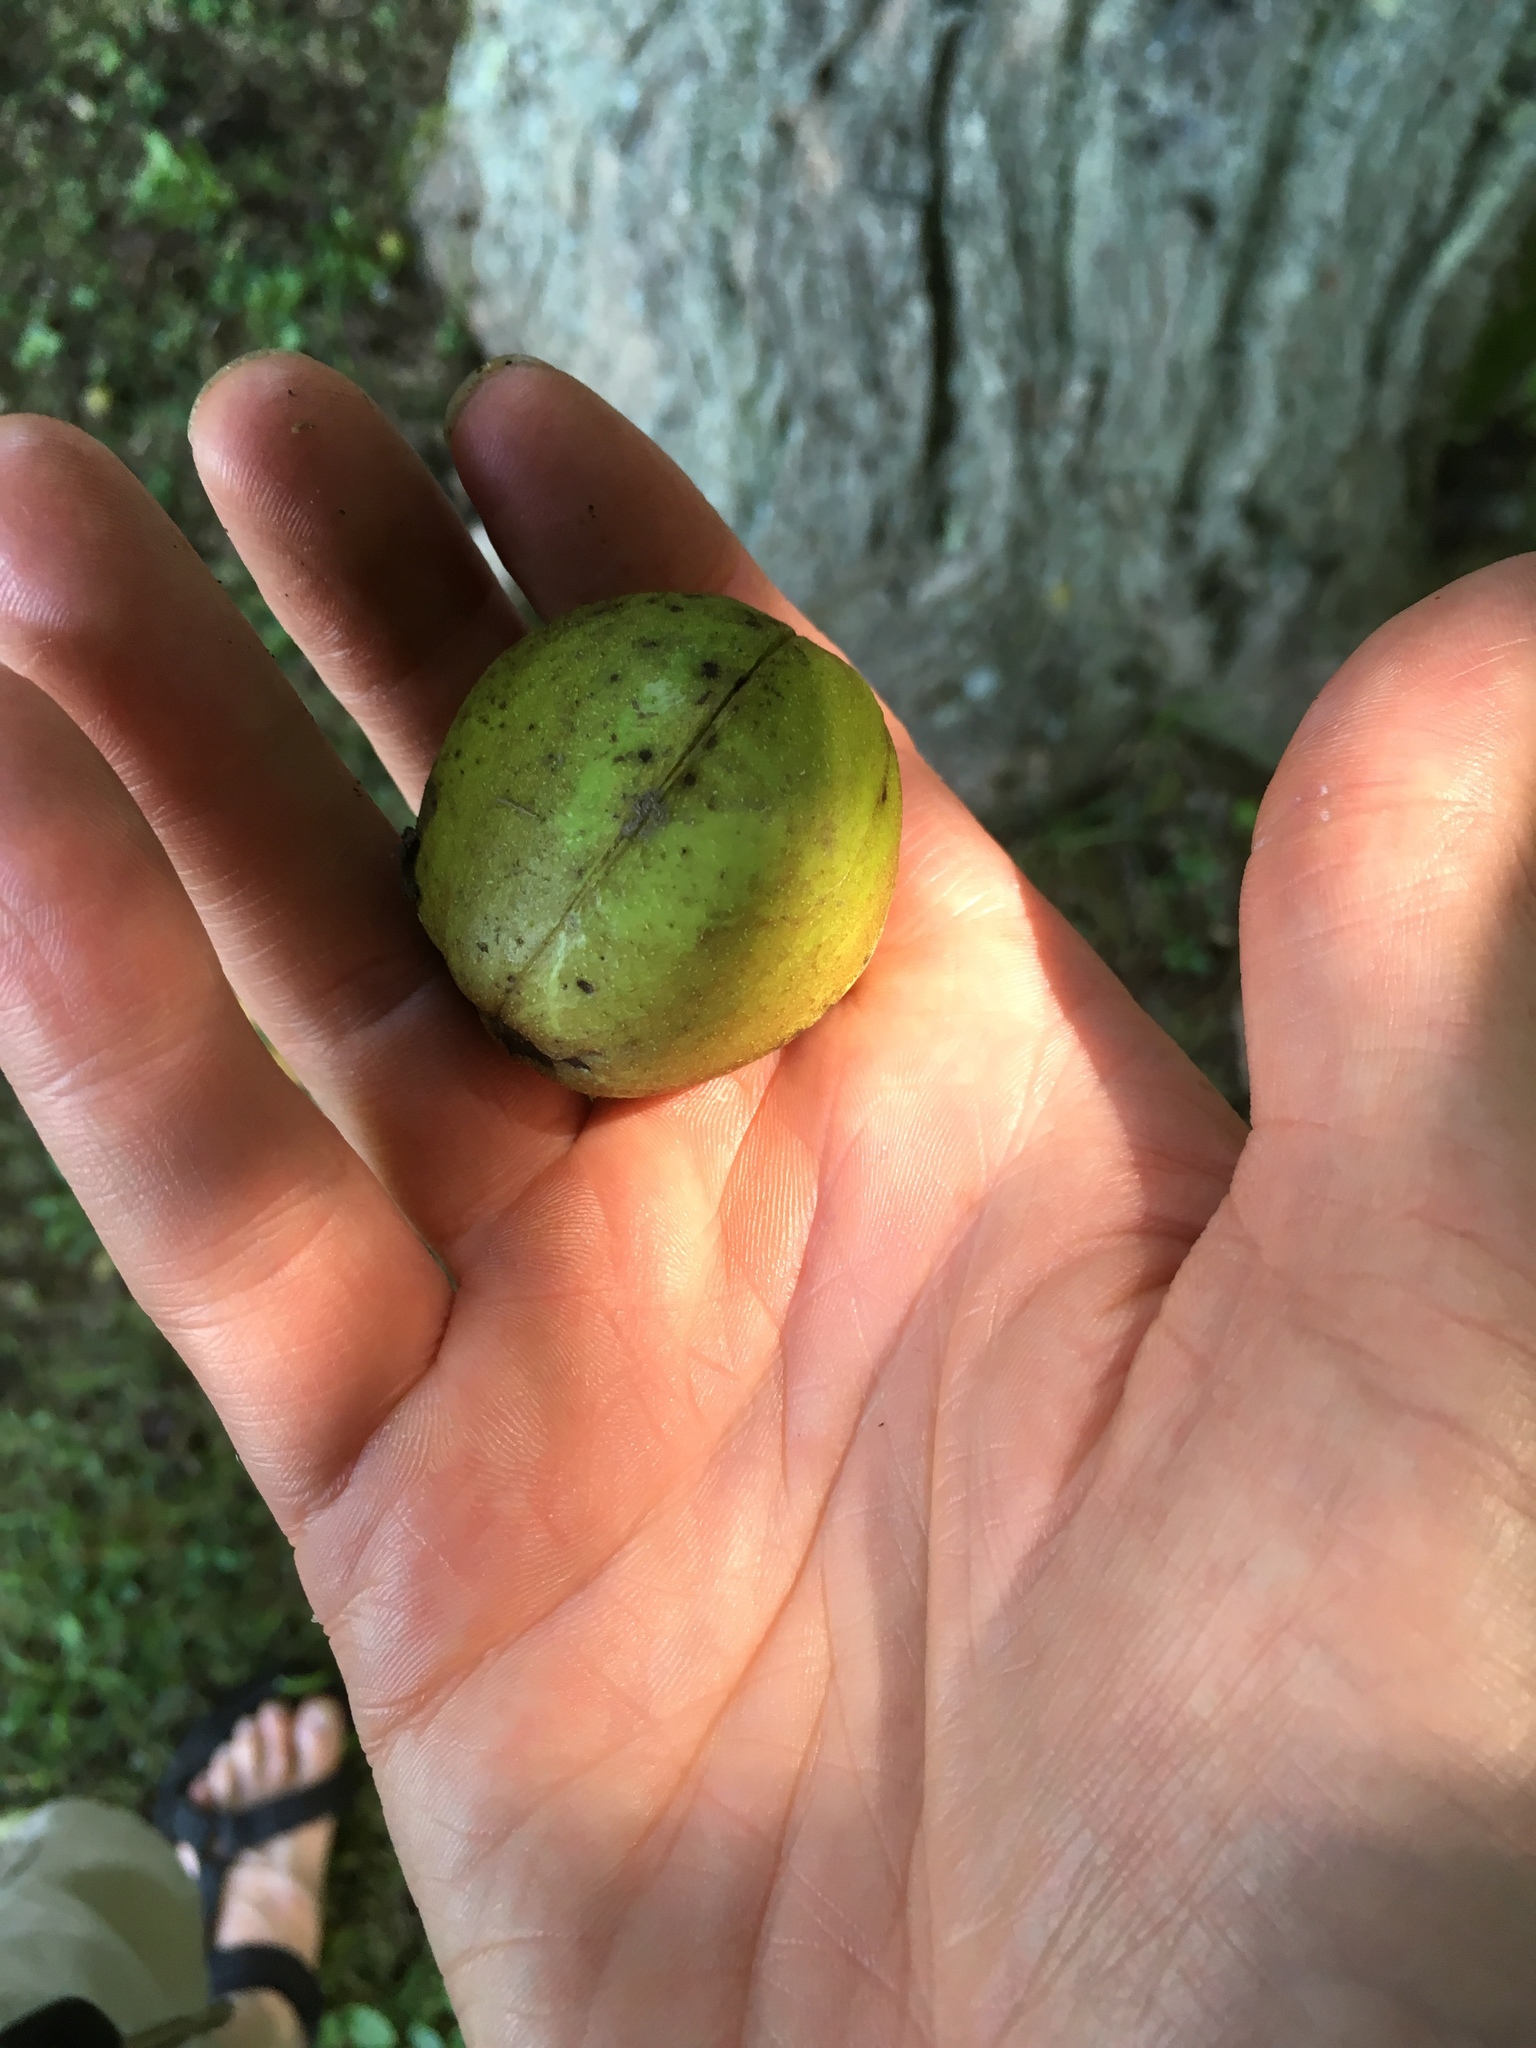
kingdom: Plantae
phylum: Tracheophyta
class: Magnoliopsida
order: Fagales
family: Juglandaceae
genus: Carya
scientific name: Carya ovata
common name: Shagbark hickory
